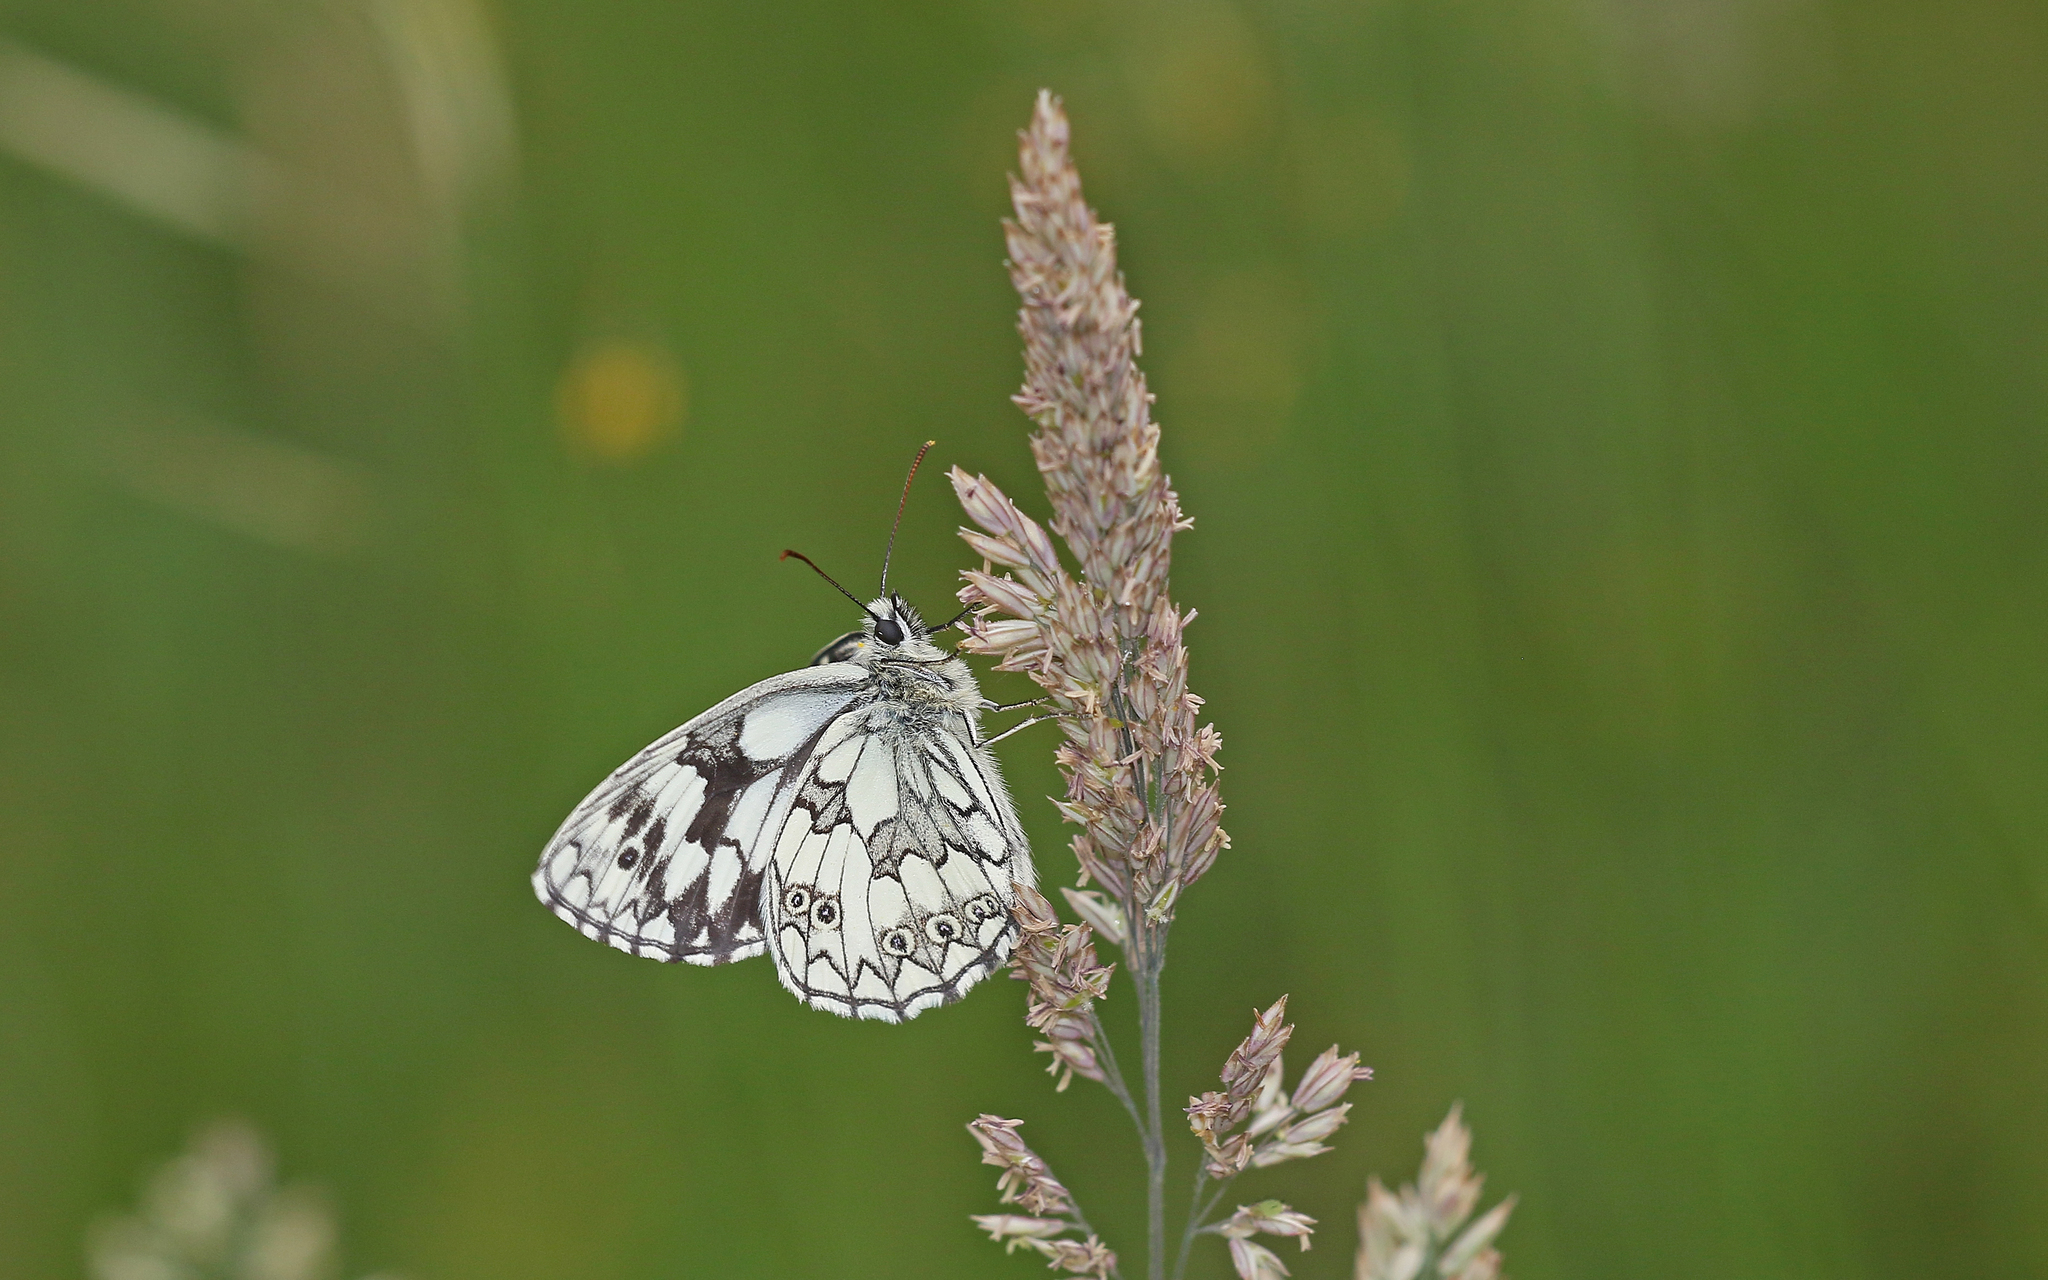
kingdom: Animalia
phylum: Arthropoda
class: Insecta
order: Lepidoptera
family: Nymphalidae
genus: Melanargia
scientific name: Melanargia galathea
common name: Marbled white
